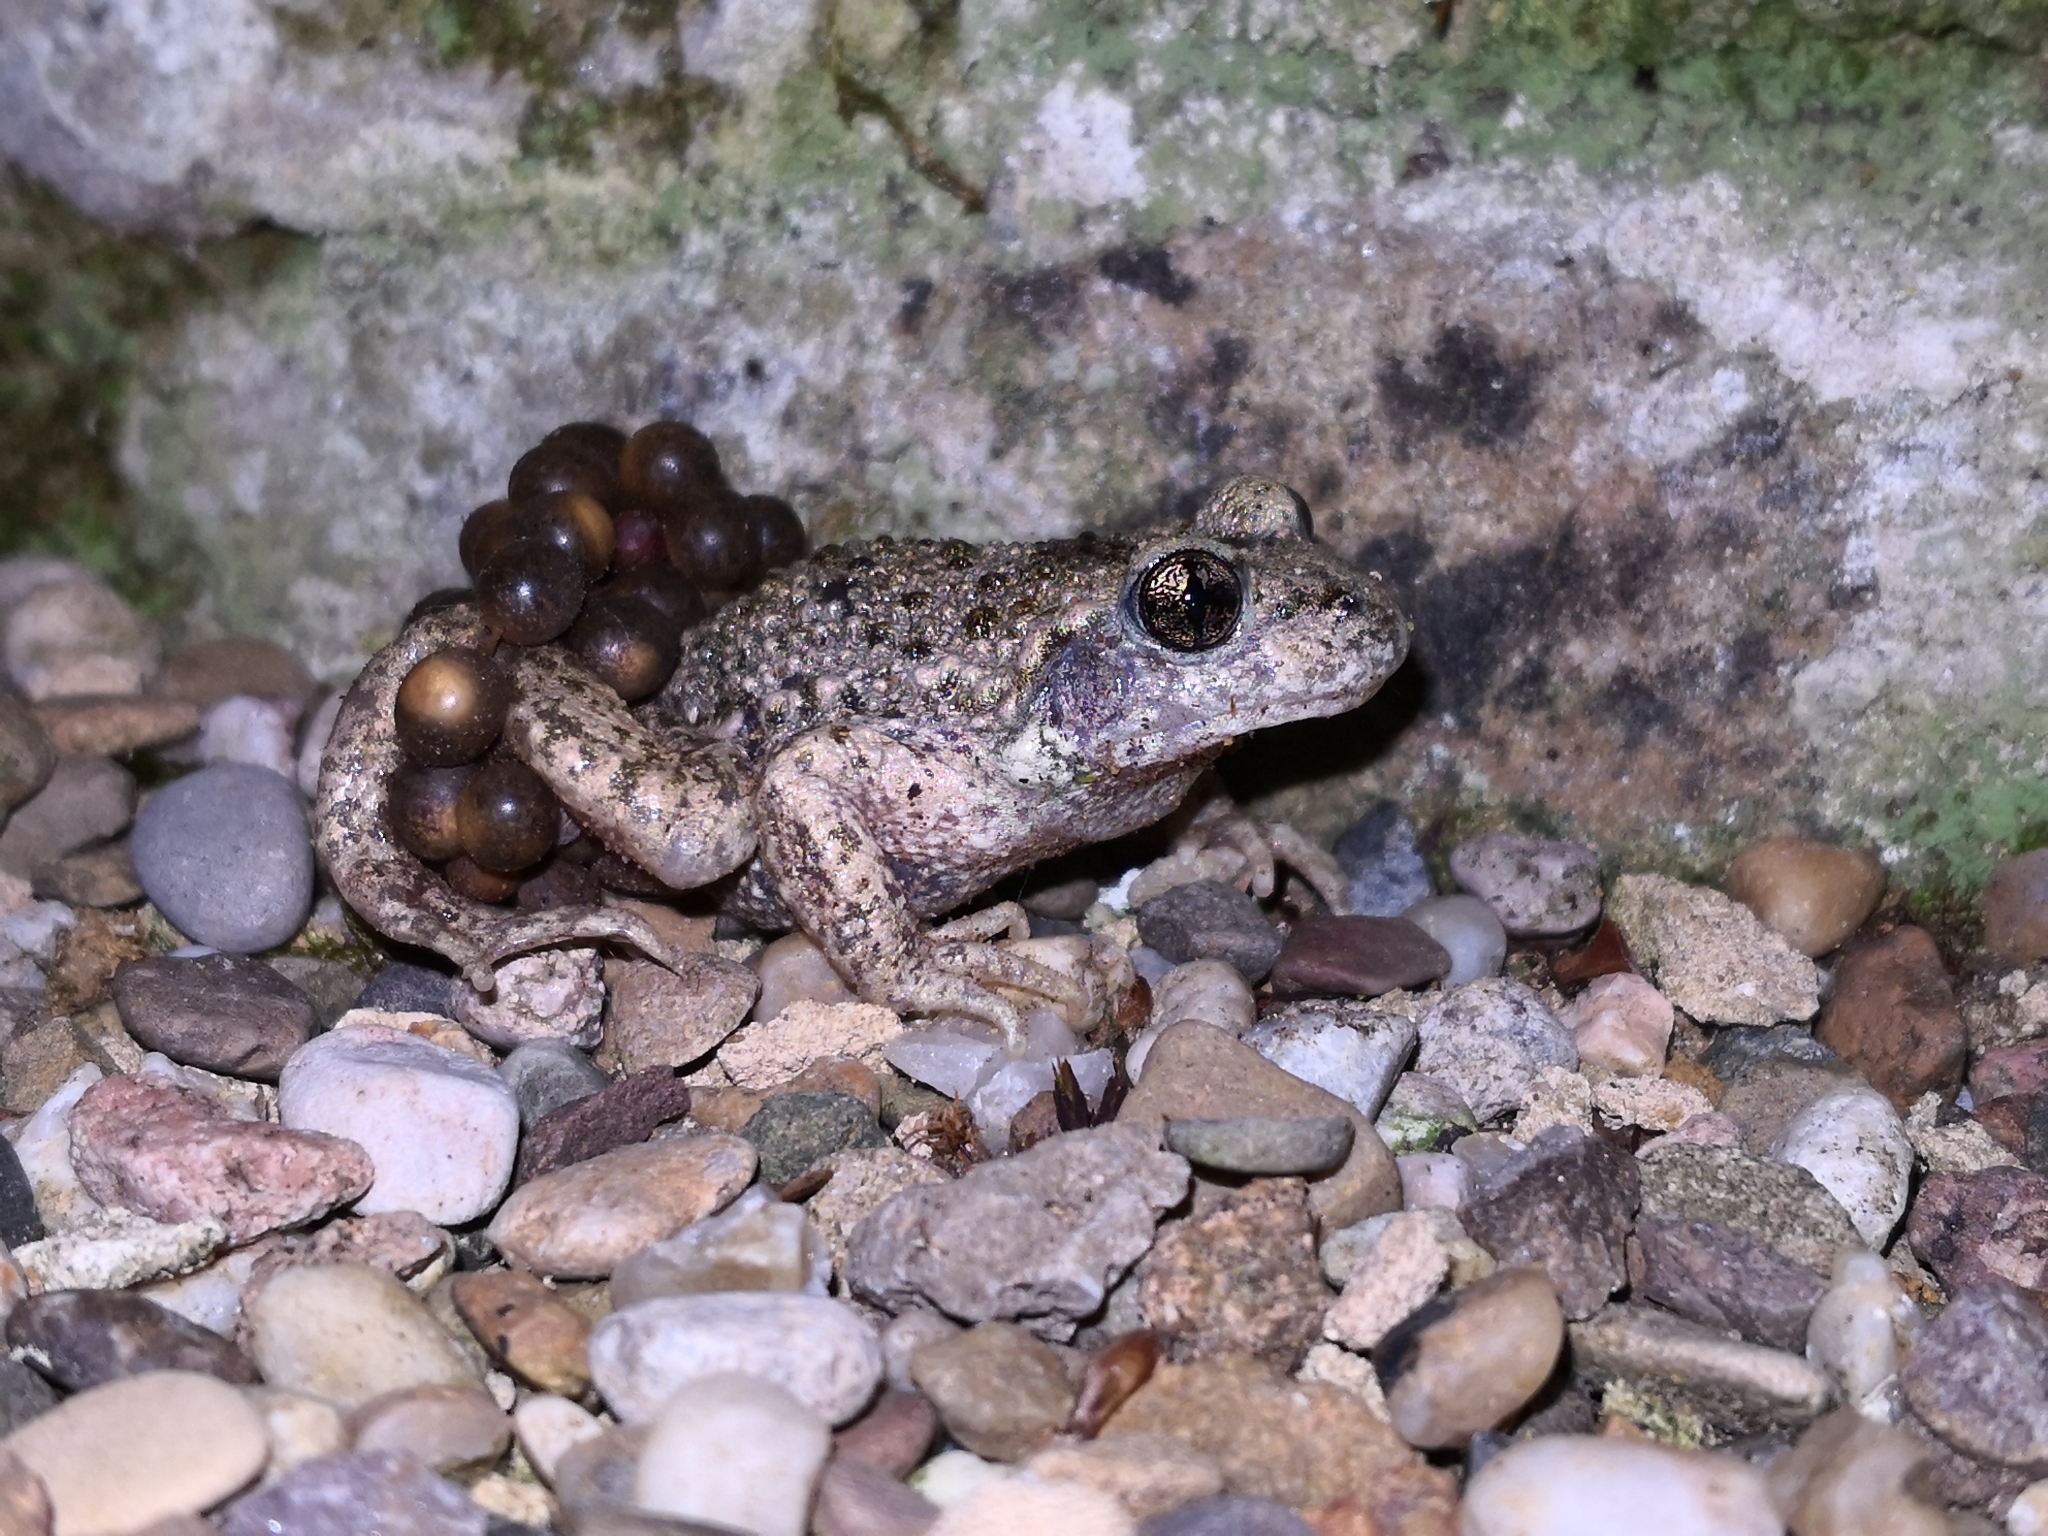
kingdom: Animalia
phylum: Chordata
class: Amphibia
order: Anura
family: Alytidae
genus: Alytes
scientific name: Alytes obstetricans
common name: Midwife toad
